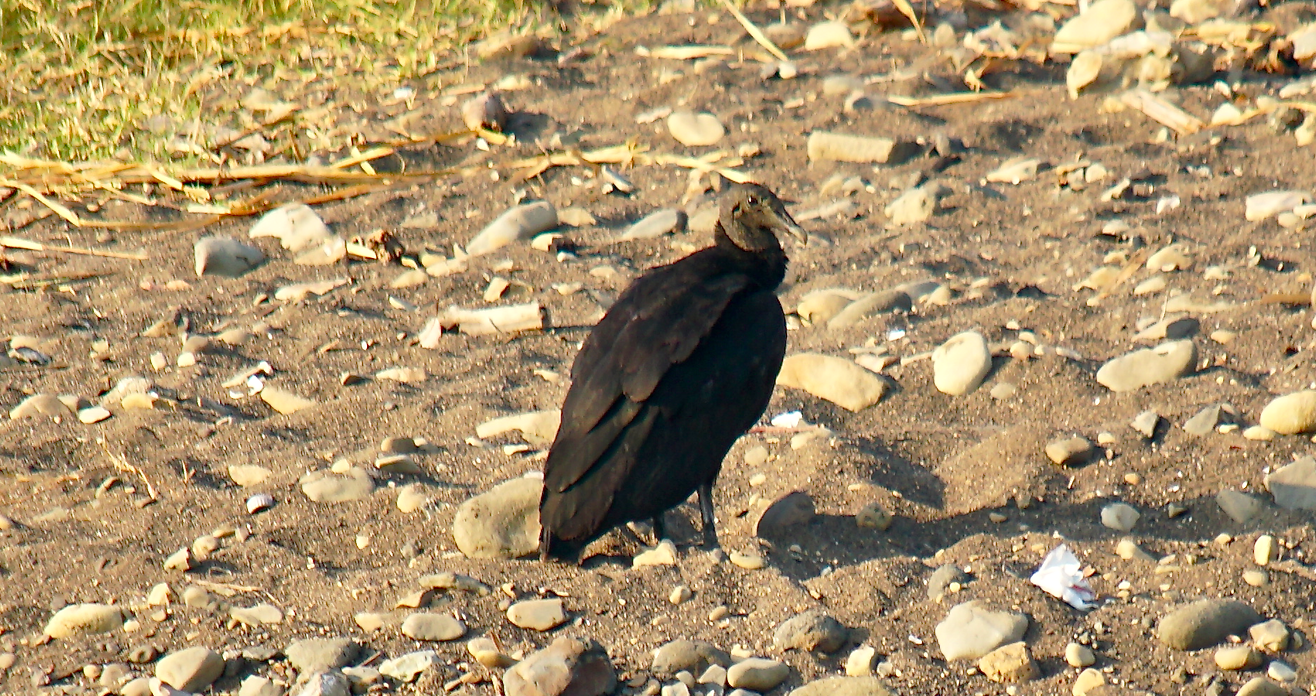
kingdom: Animalia
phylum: Chordata
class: Aves
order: Accipitriformes
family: Cathartidae
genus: Coragyps
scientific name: Coragyps atratus
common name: Black vulture
